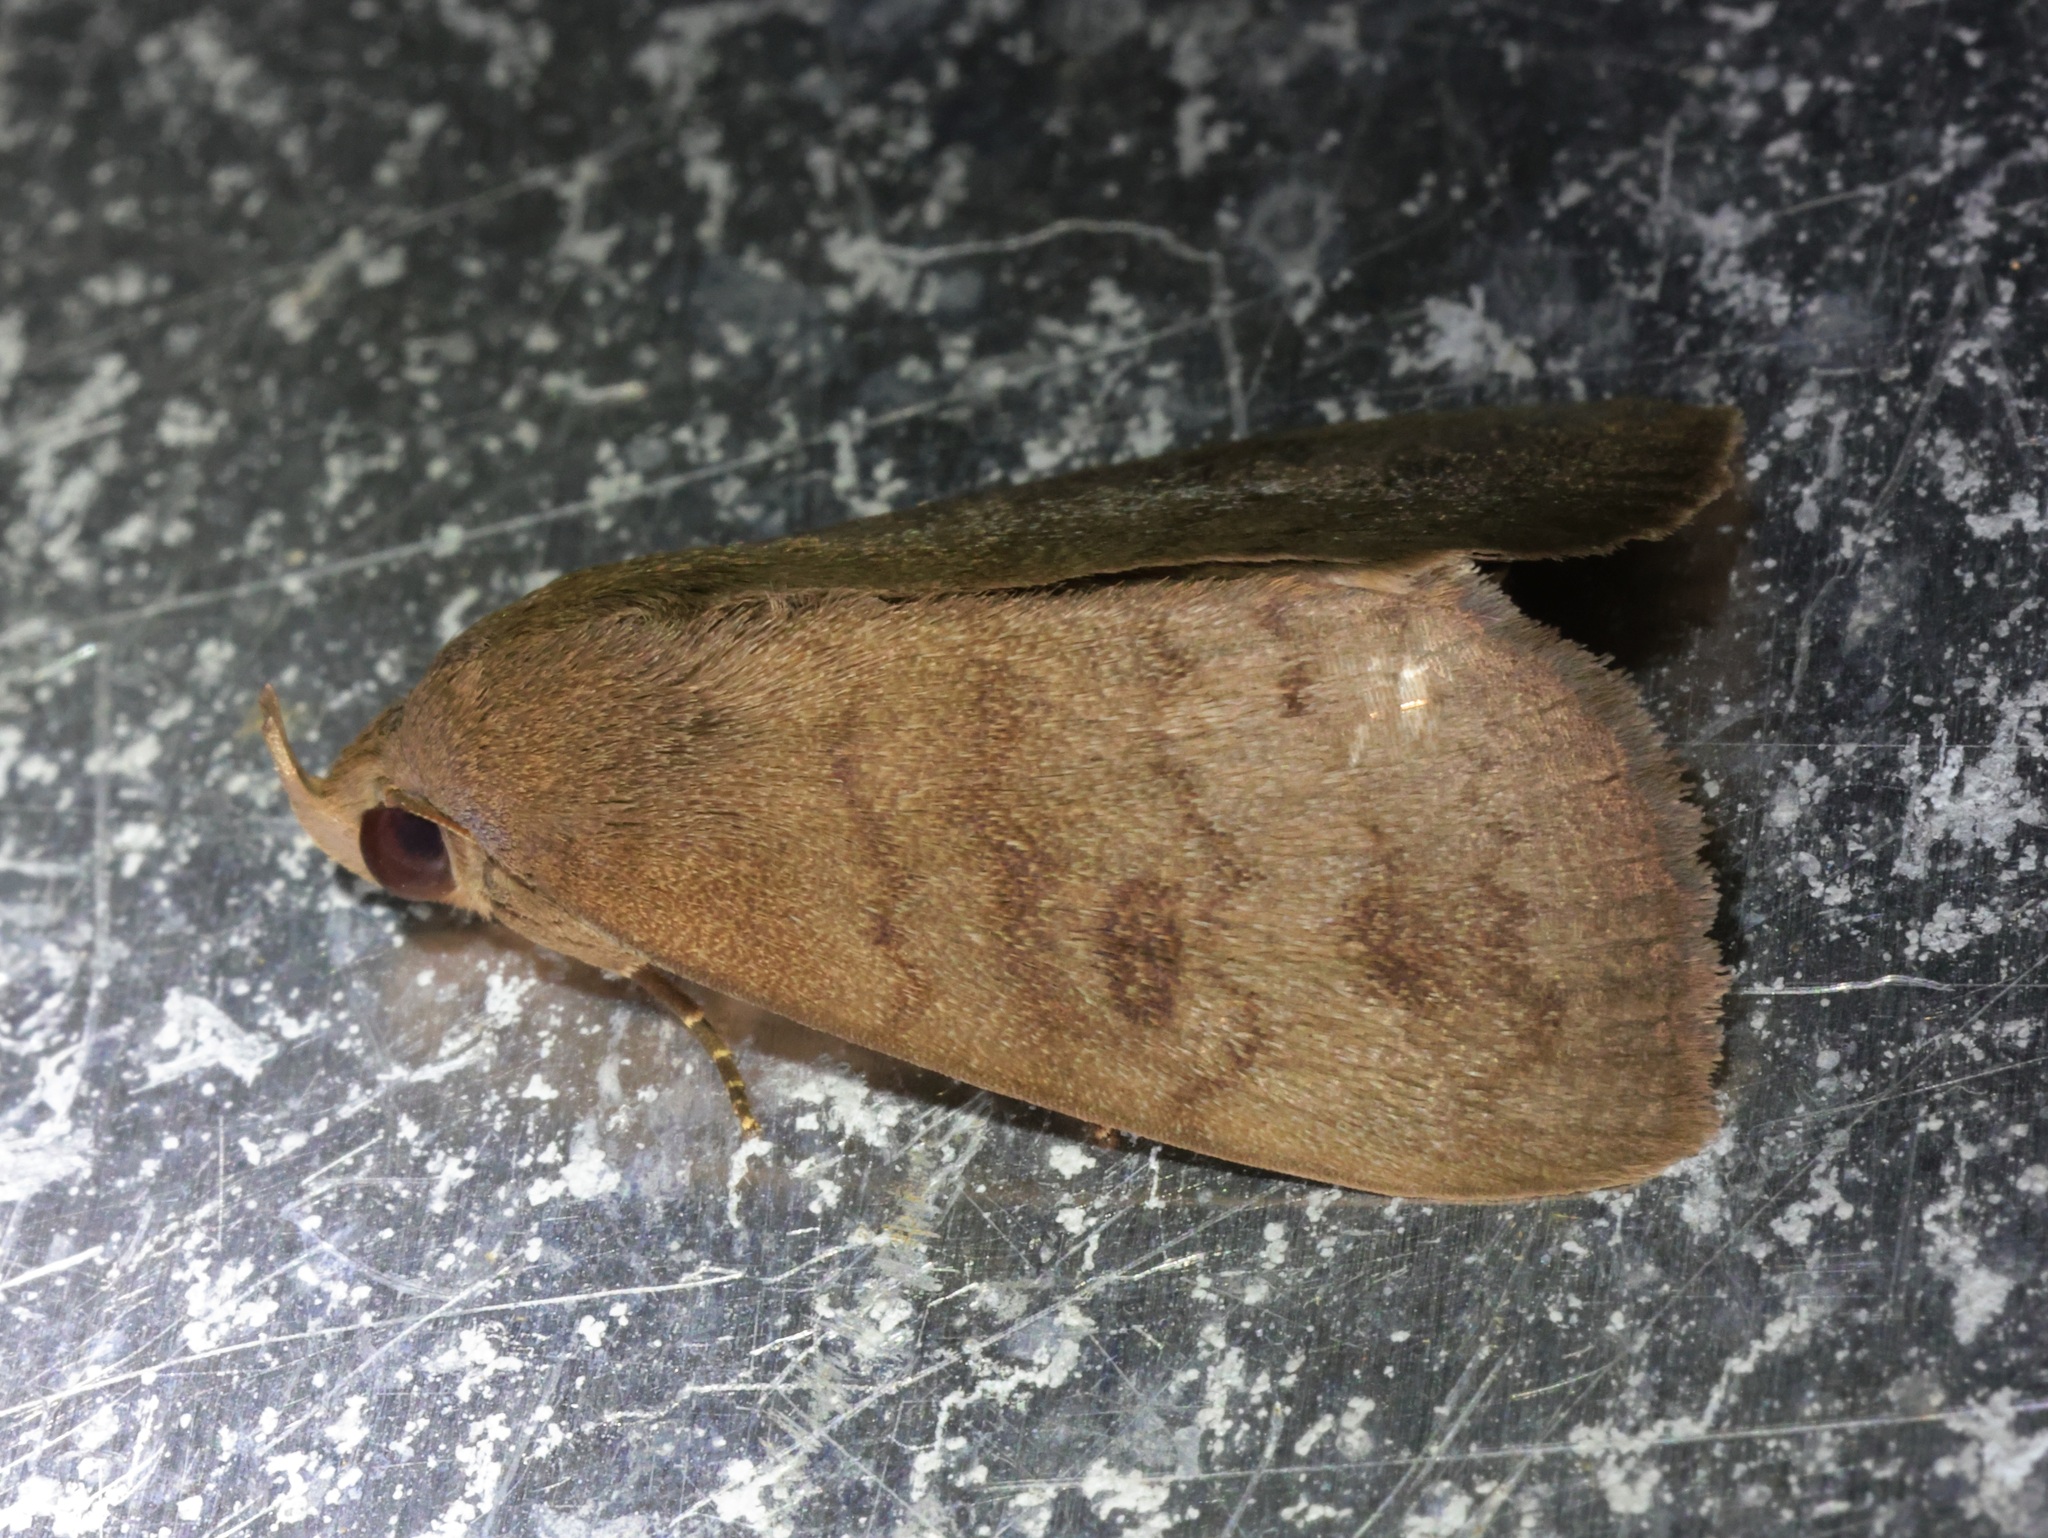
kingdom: Animalia
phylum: Arthropoda
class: Insecta
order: Lepidoptera
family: Erebidae
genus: Avitta
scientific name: Avitta fasciosa
